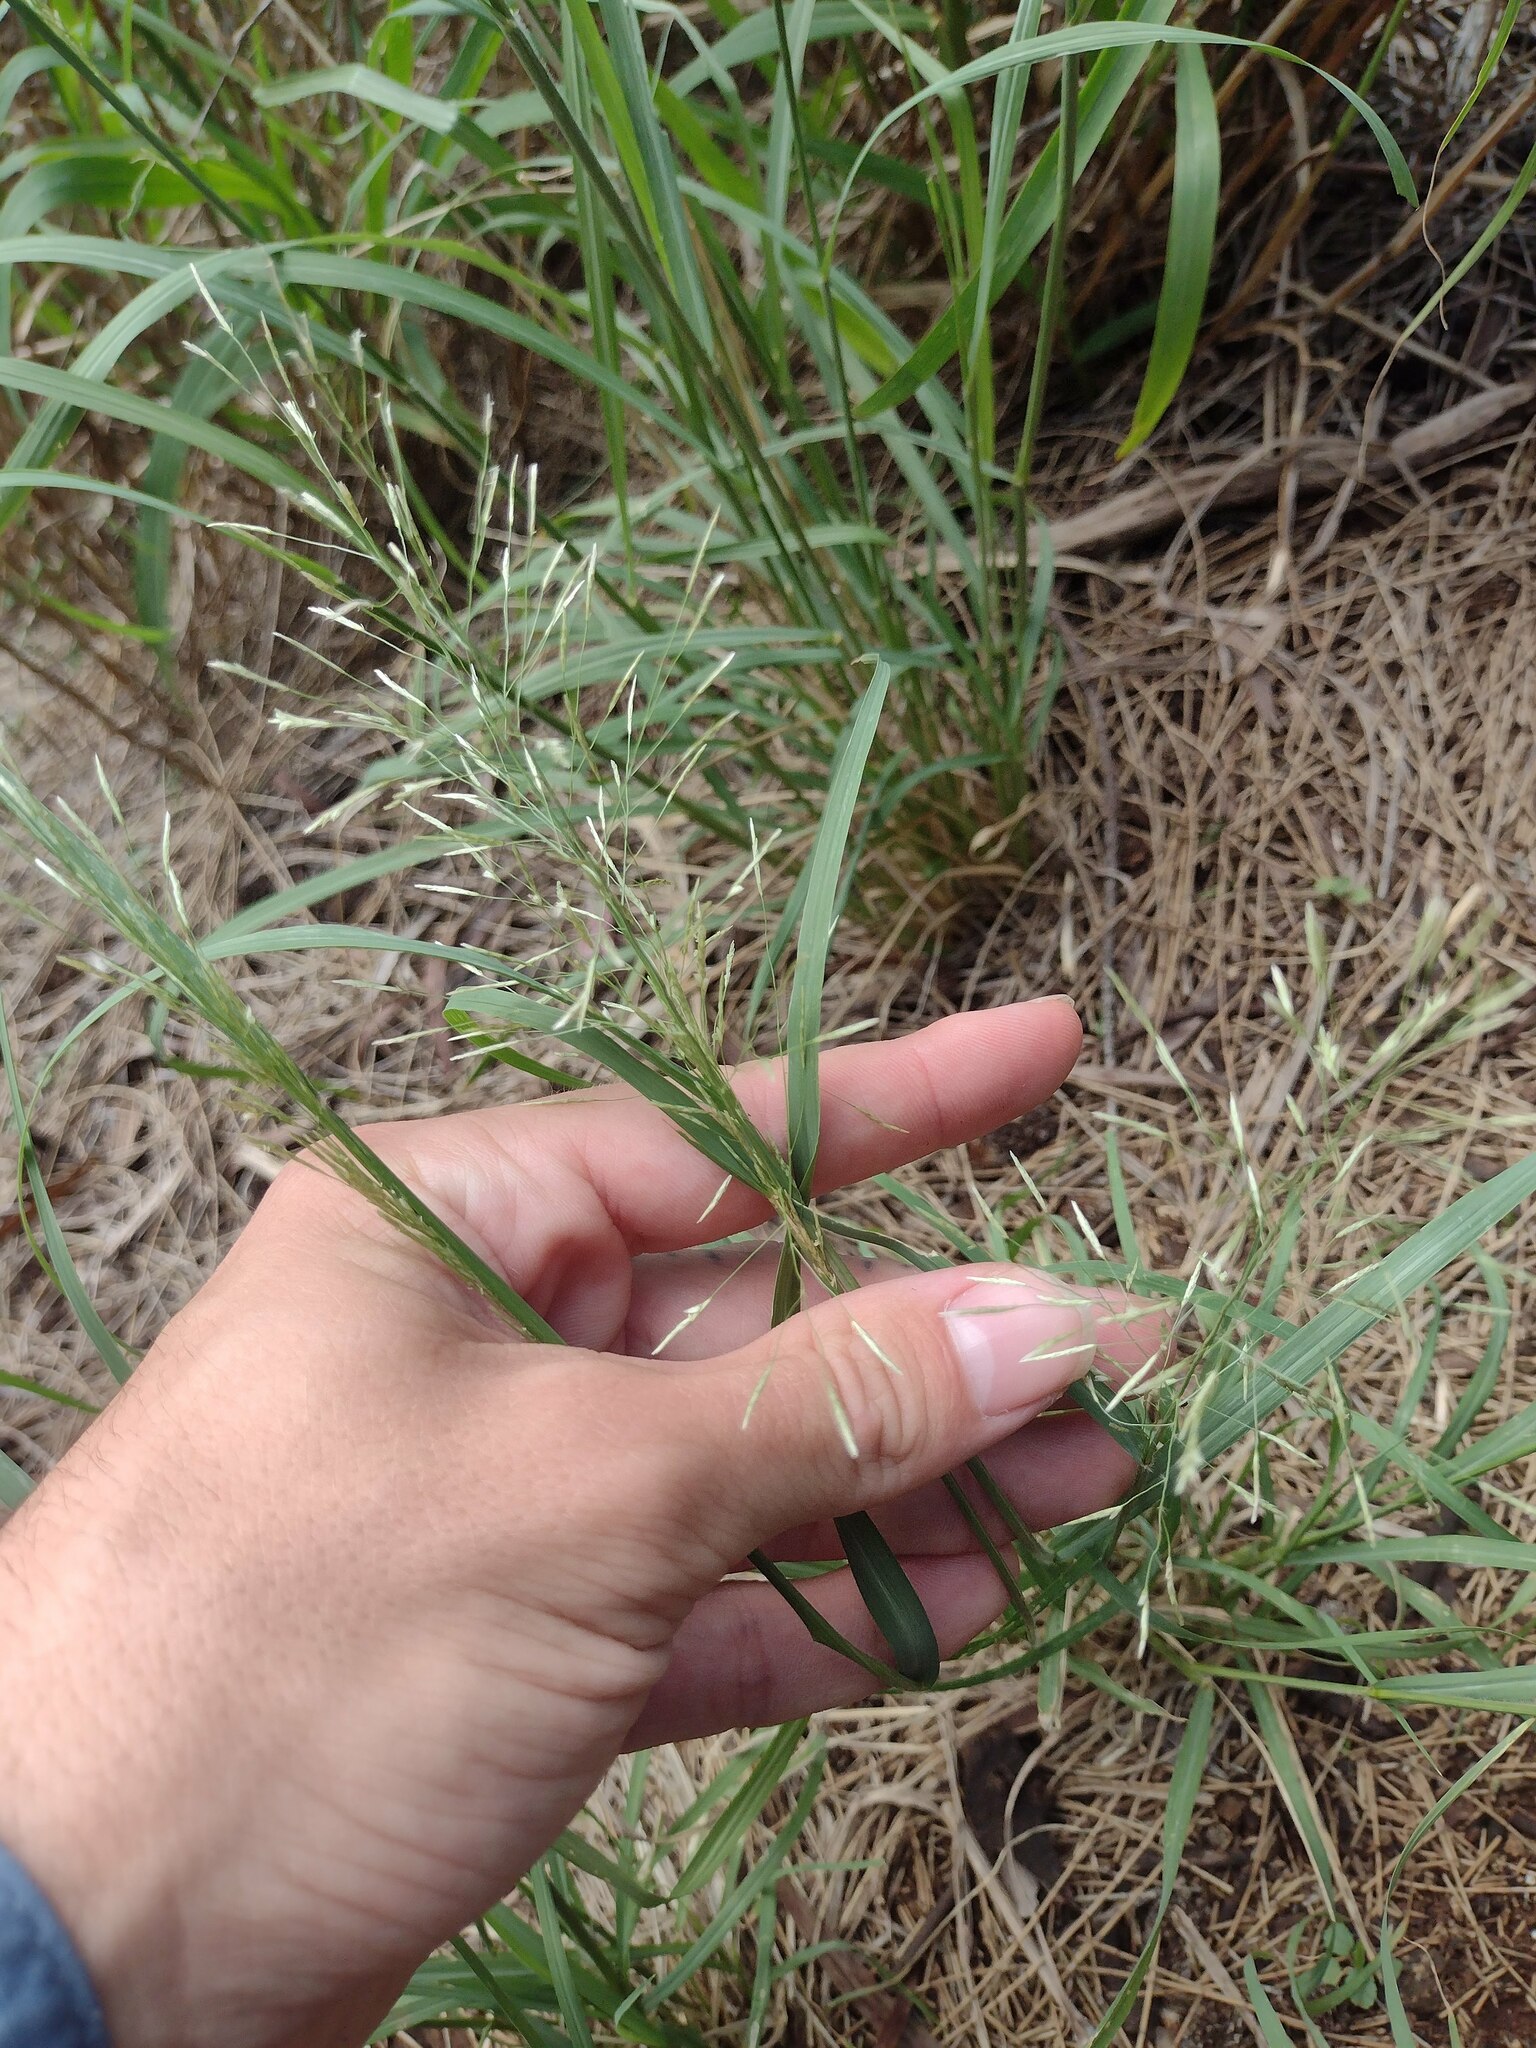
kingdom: Plantae
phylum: Tracheophyta
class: Liliopsida
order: Poales
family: Poaceae
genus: Eragrostis
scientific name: Eragrostis tenuifolia
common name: Elastic grass
